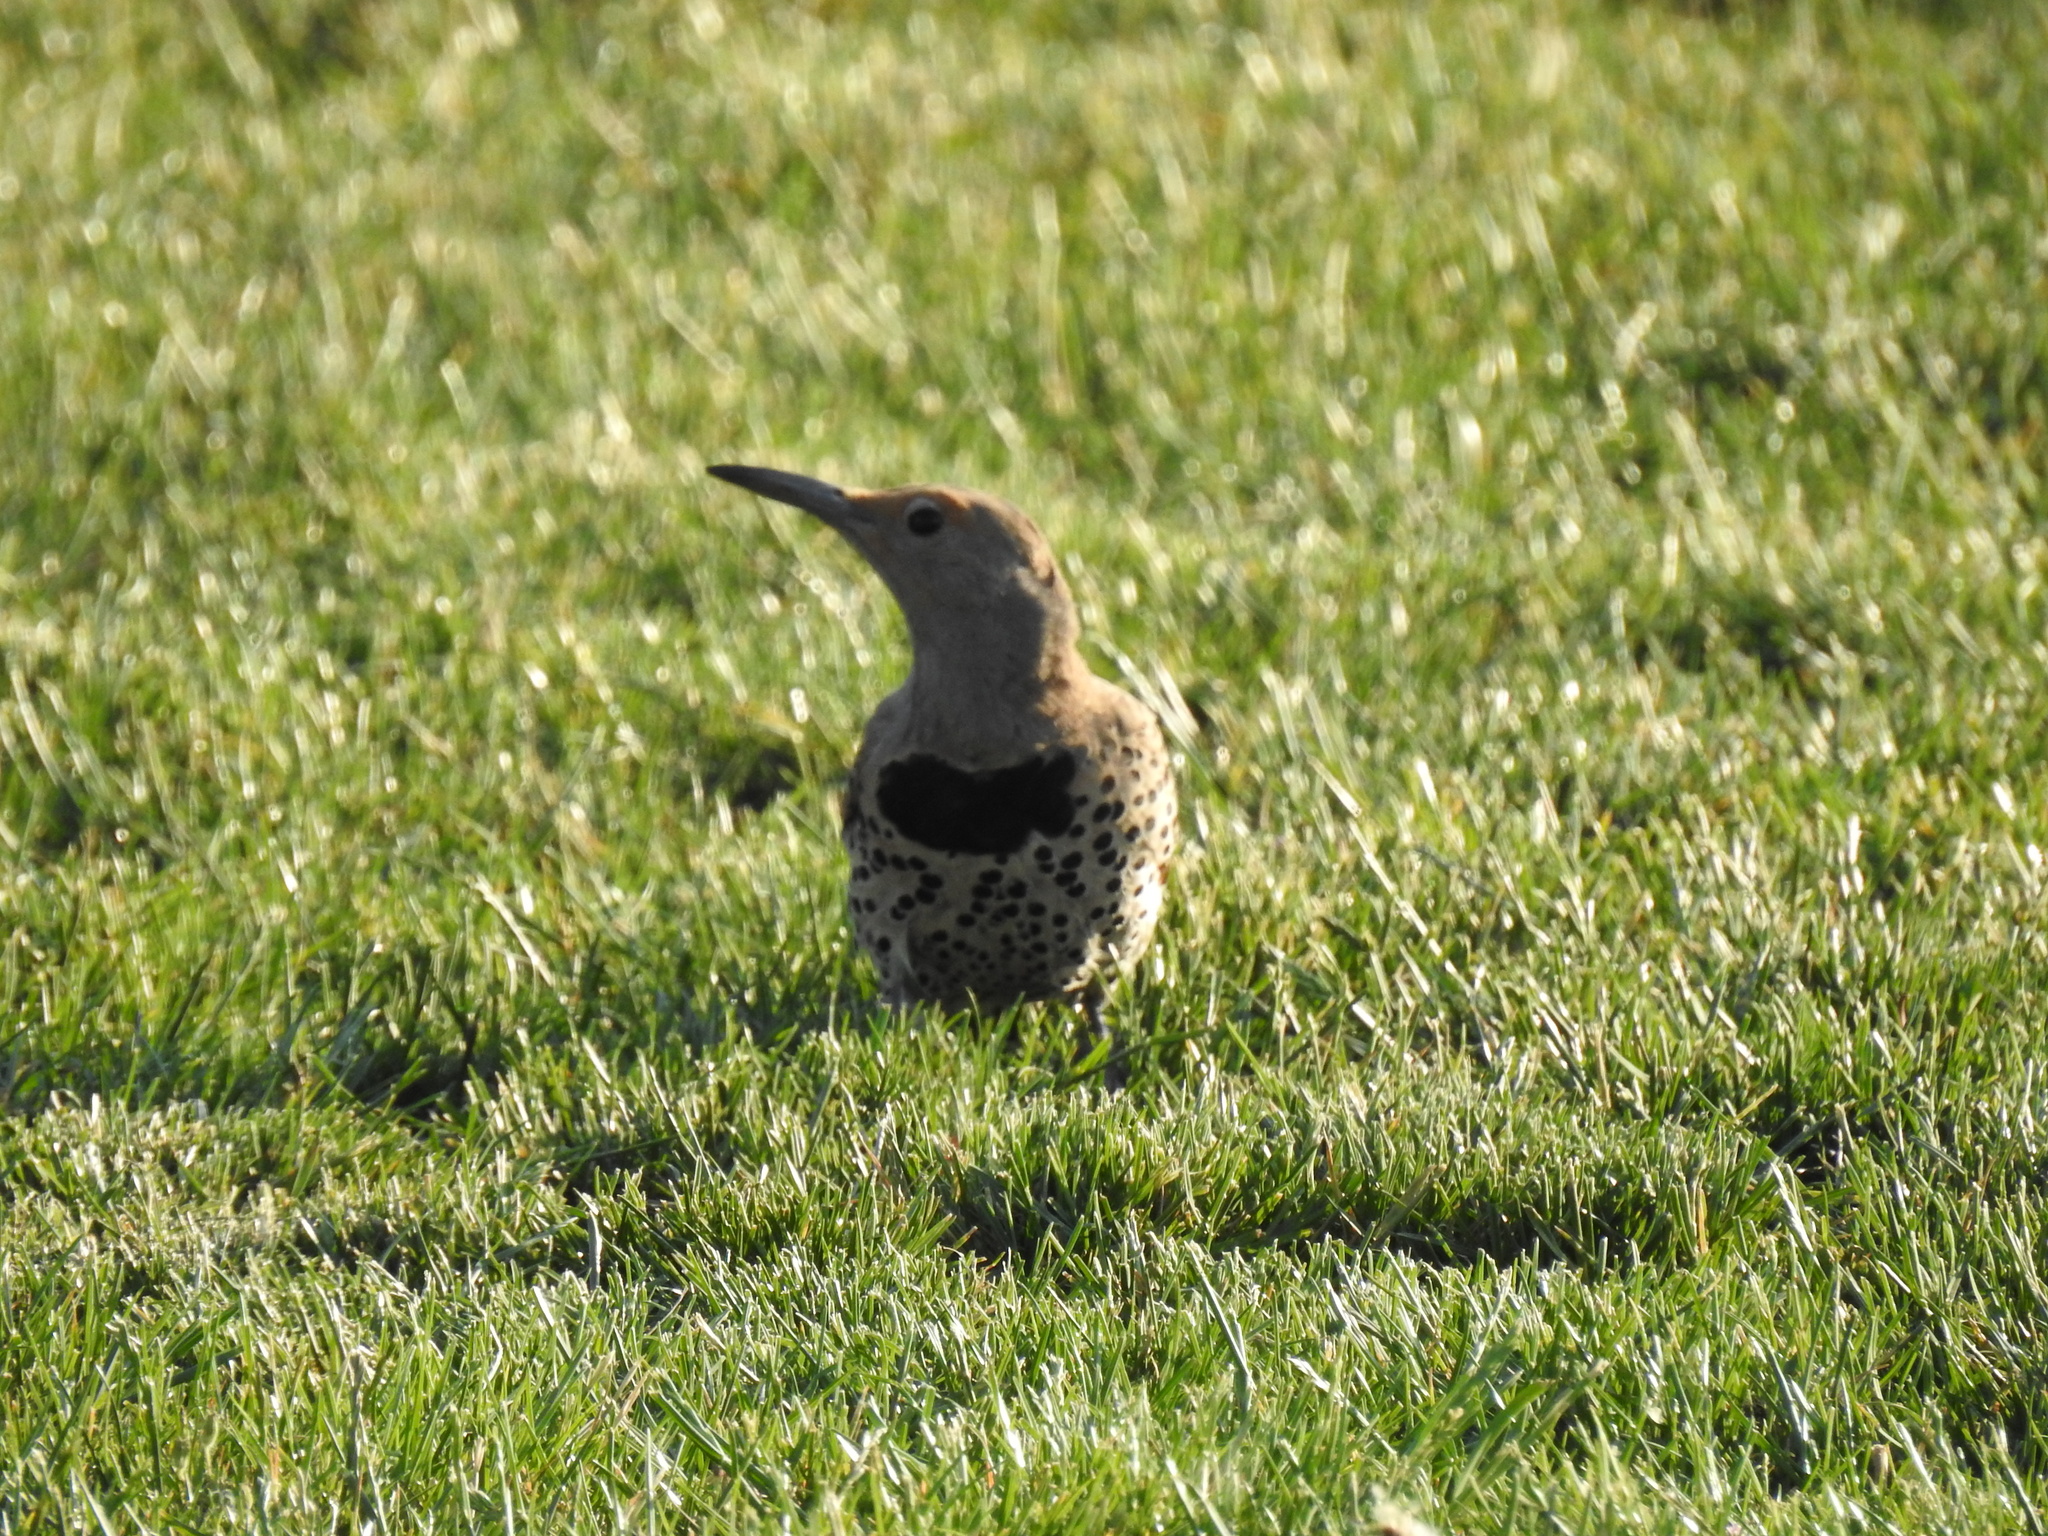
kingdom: Animalia
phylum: Chordata
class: Aves
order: Piciformes
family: Picidae
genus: Colaptes
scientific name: Colaptes auratus
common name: Northern flicker
